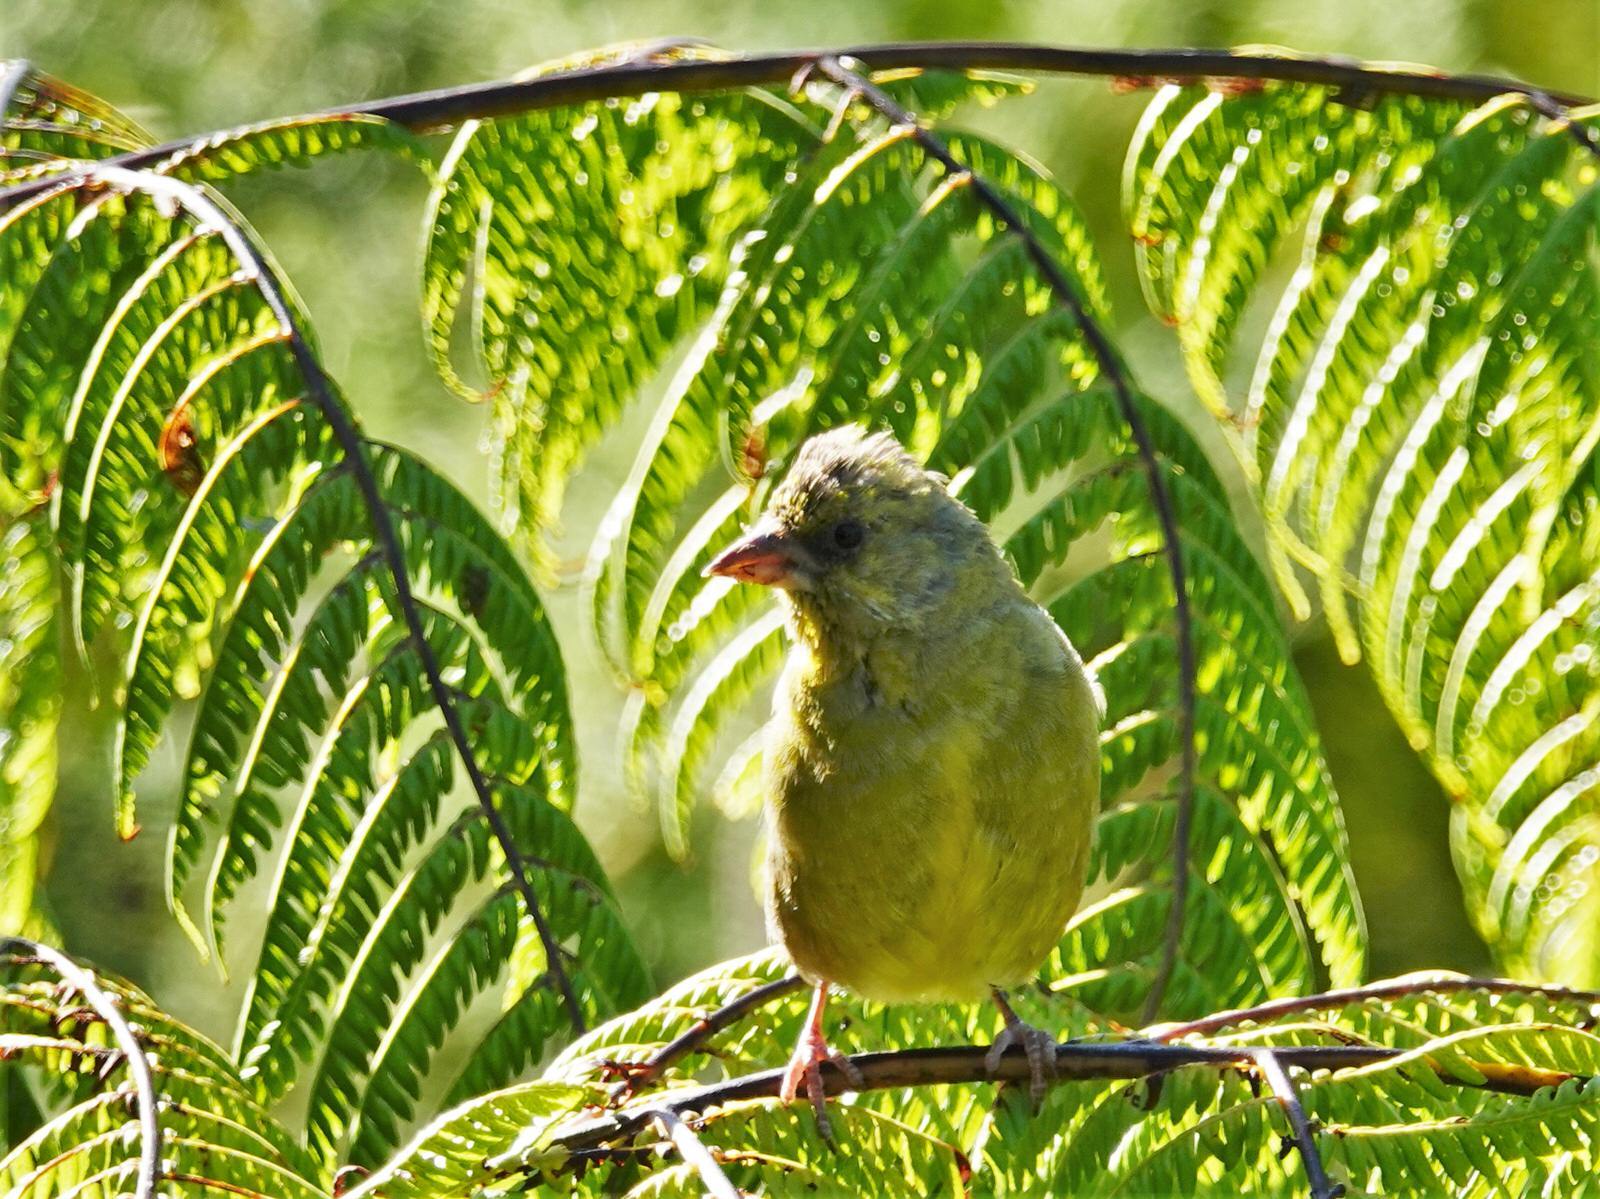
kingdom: Plantae
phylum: Tracheophyta
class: Liliopsida
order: Poales
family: Poaceae
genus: Chloris
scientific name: Chloris chloris
